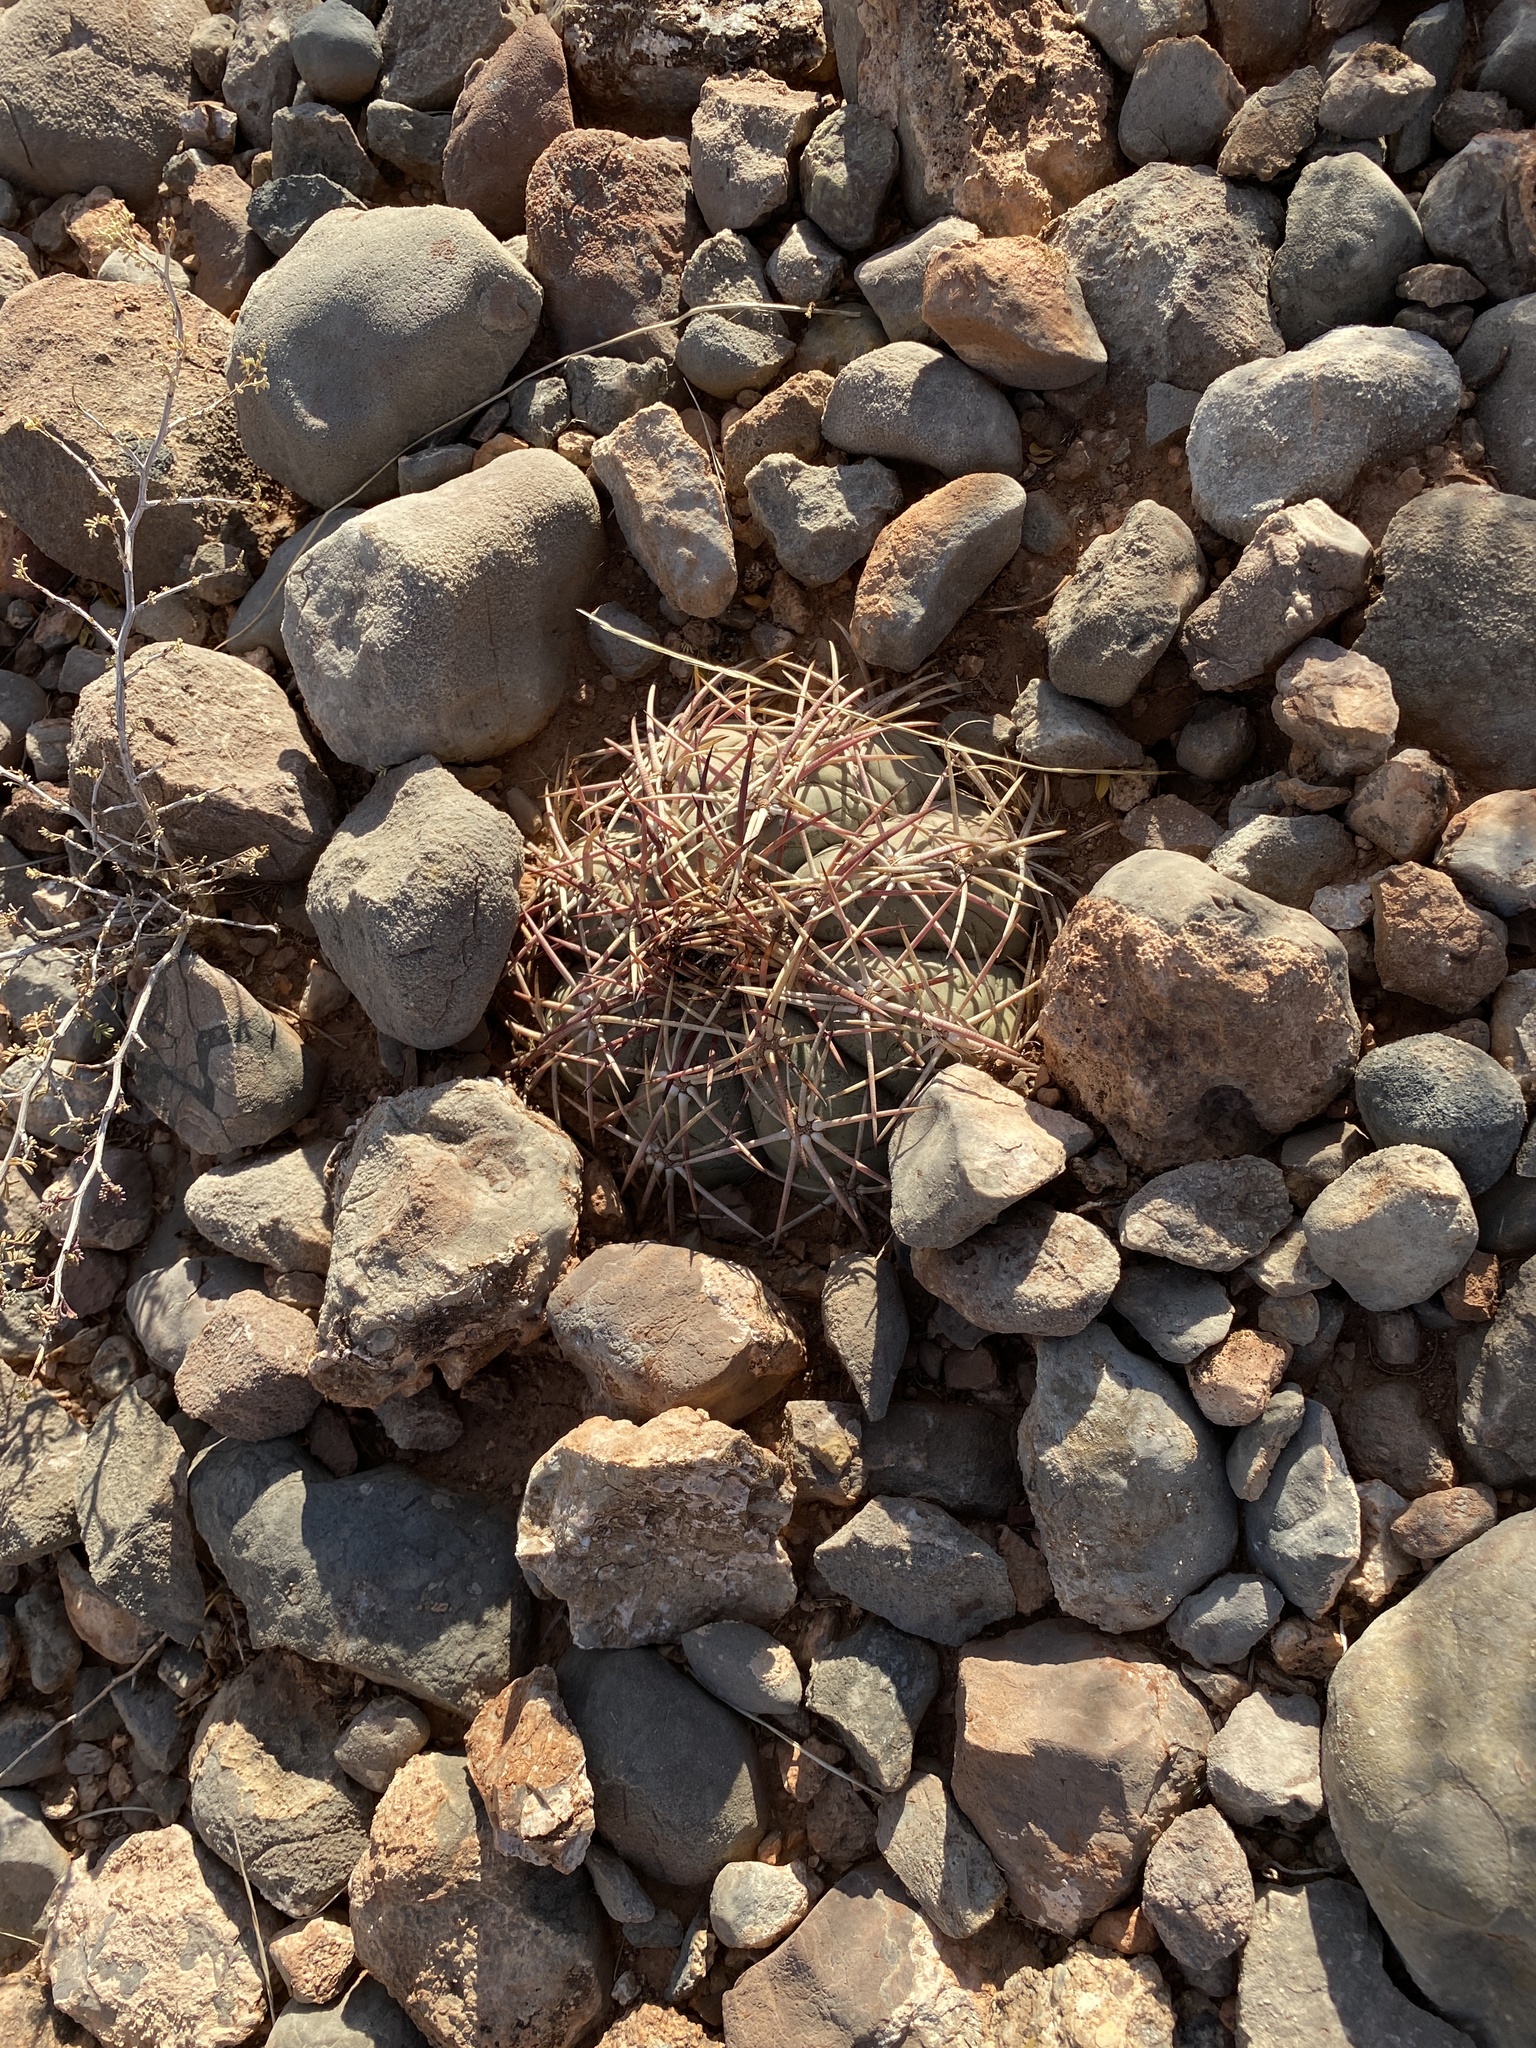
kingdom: Plantae
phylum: Tracheophyta
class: Magnoliopsida
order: Caryophyllales
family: Cactaceae
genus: Echinocactus
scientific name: Echinocactus horizonthalonius
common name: Devilshead
